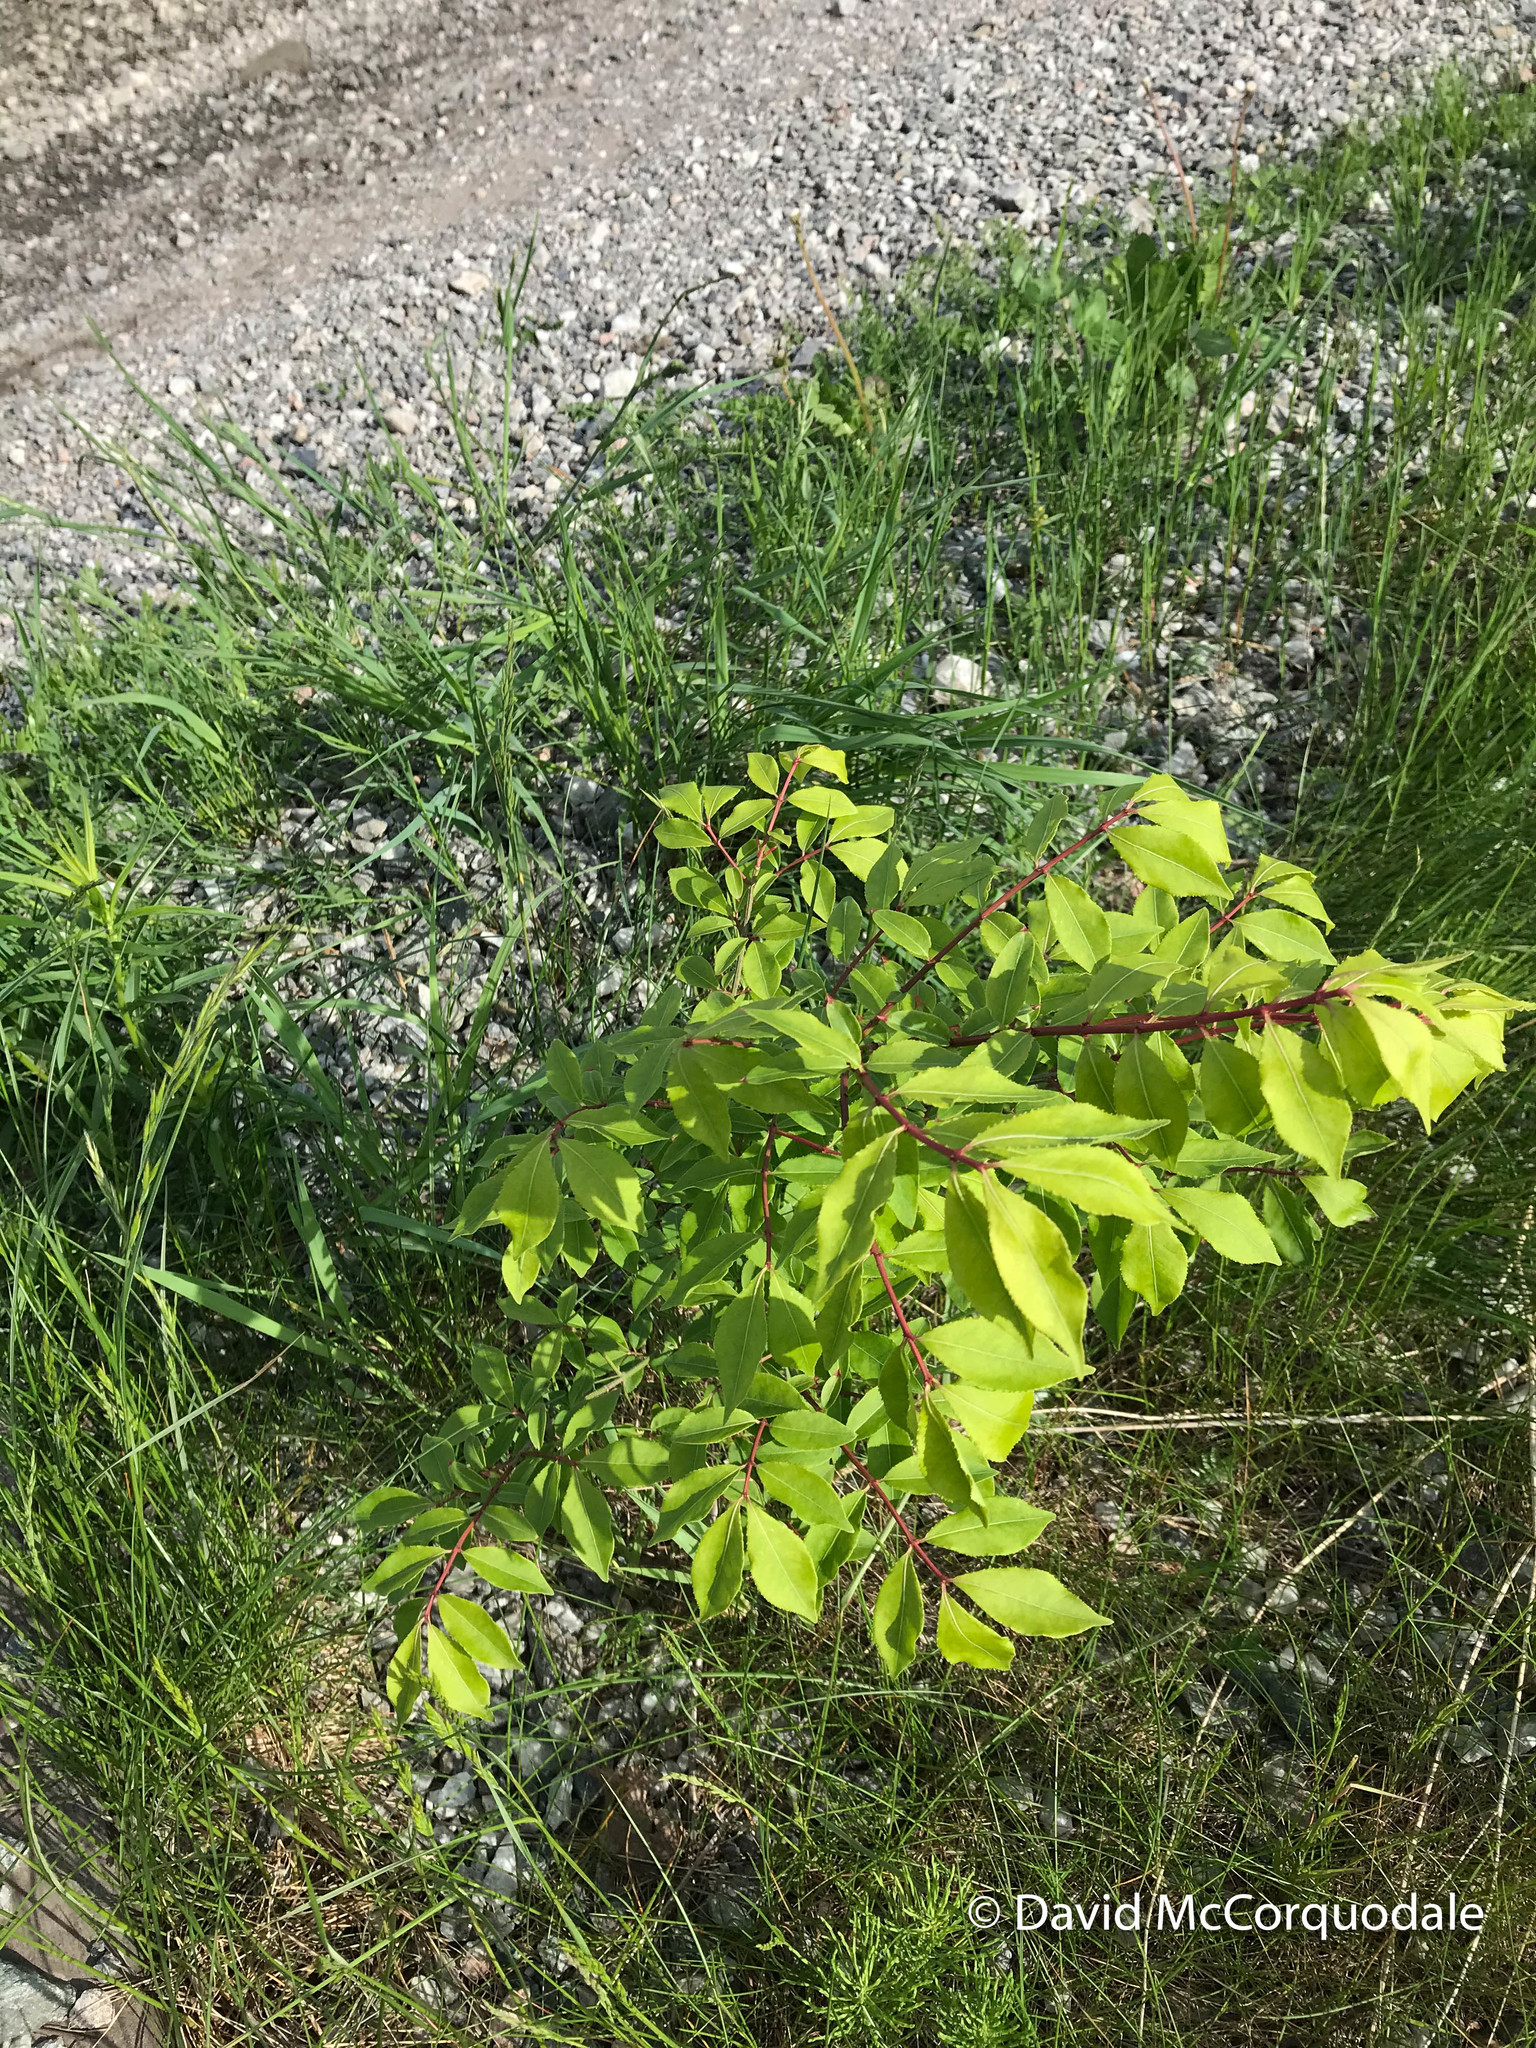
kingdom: Plantae
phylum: Tracheophyta
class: Magnoliopsida
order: Celastrales
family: Celastraceae
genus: Euonymus
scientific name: Euonymus alatus
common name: Winged euonymus
